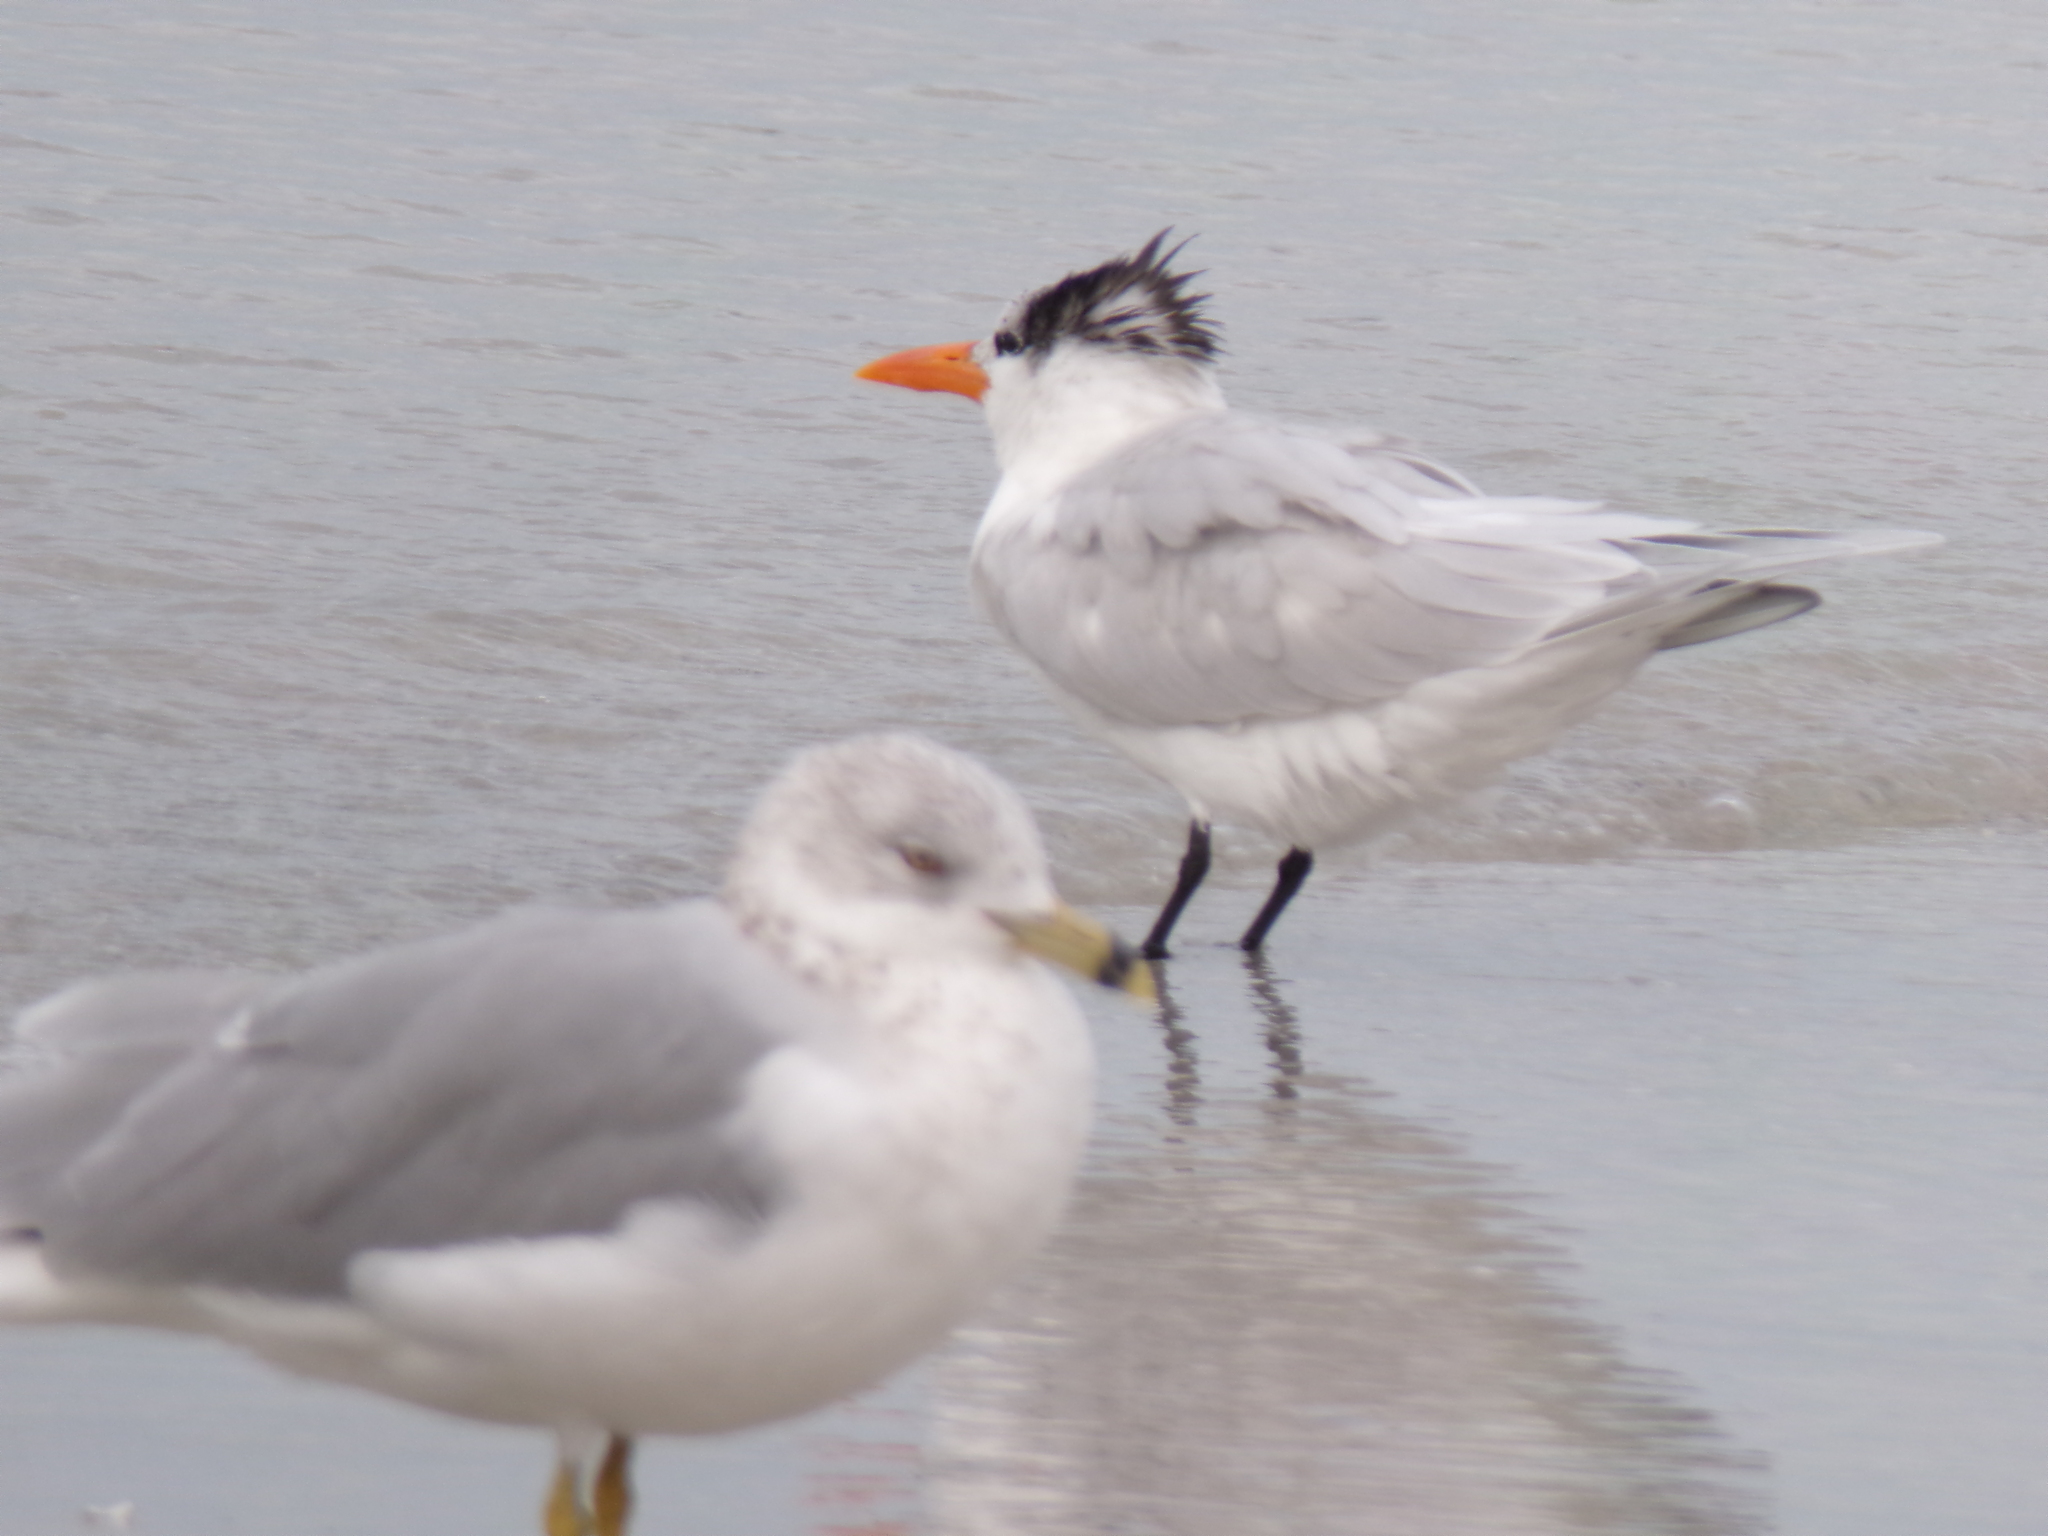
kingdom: Animalia
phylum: Chordata
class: Aves
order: Charadriiformes
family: Laridae
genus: Thalasseus
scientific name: Thalasseus maximus
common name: Royal tern
